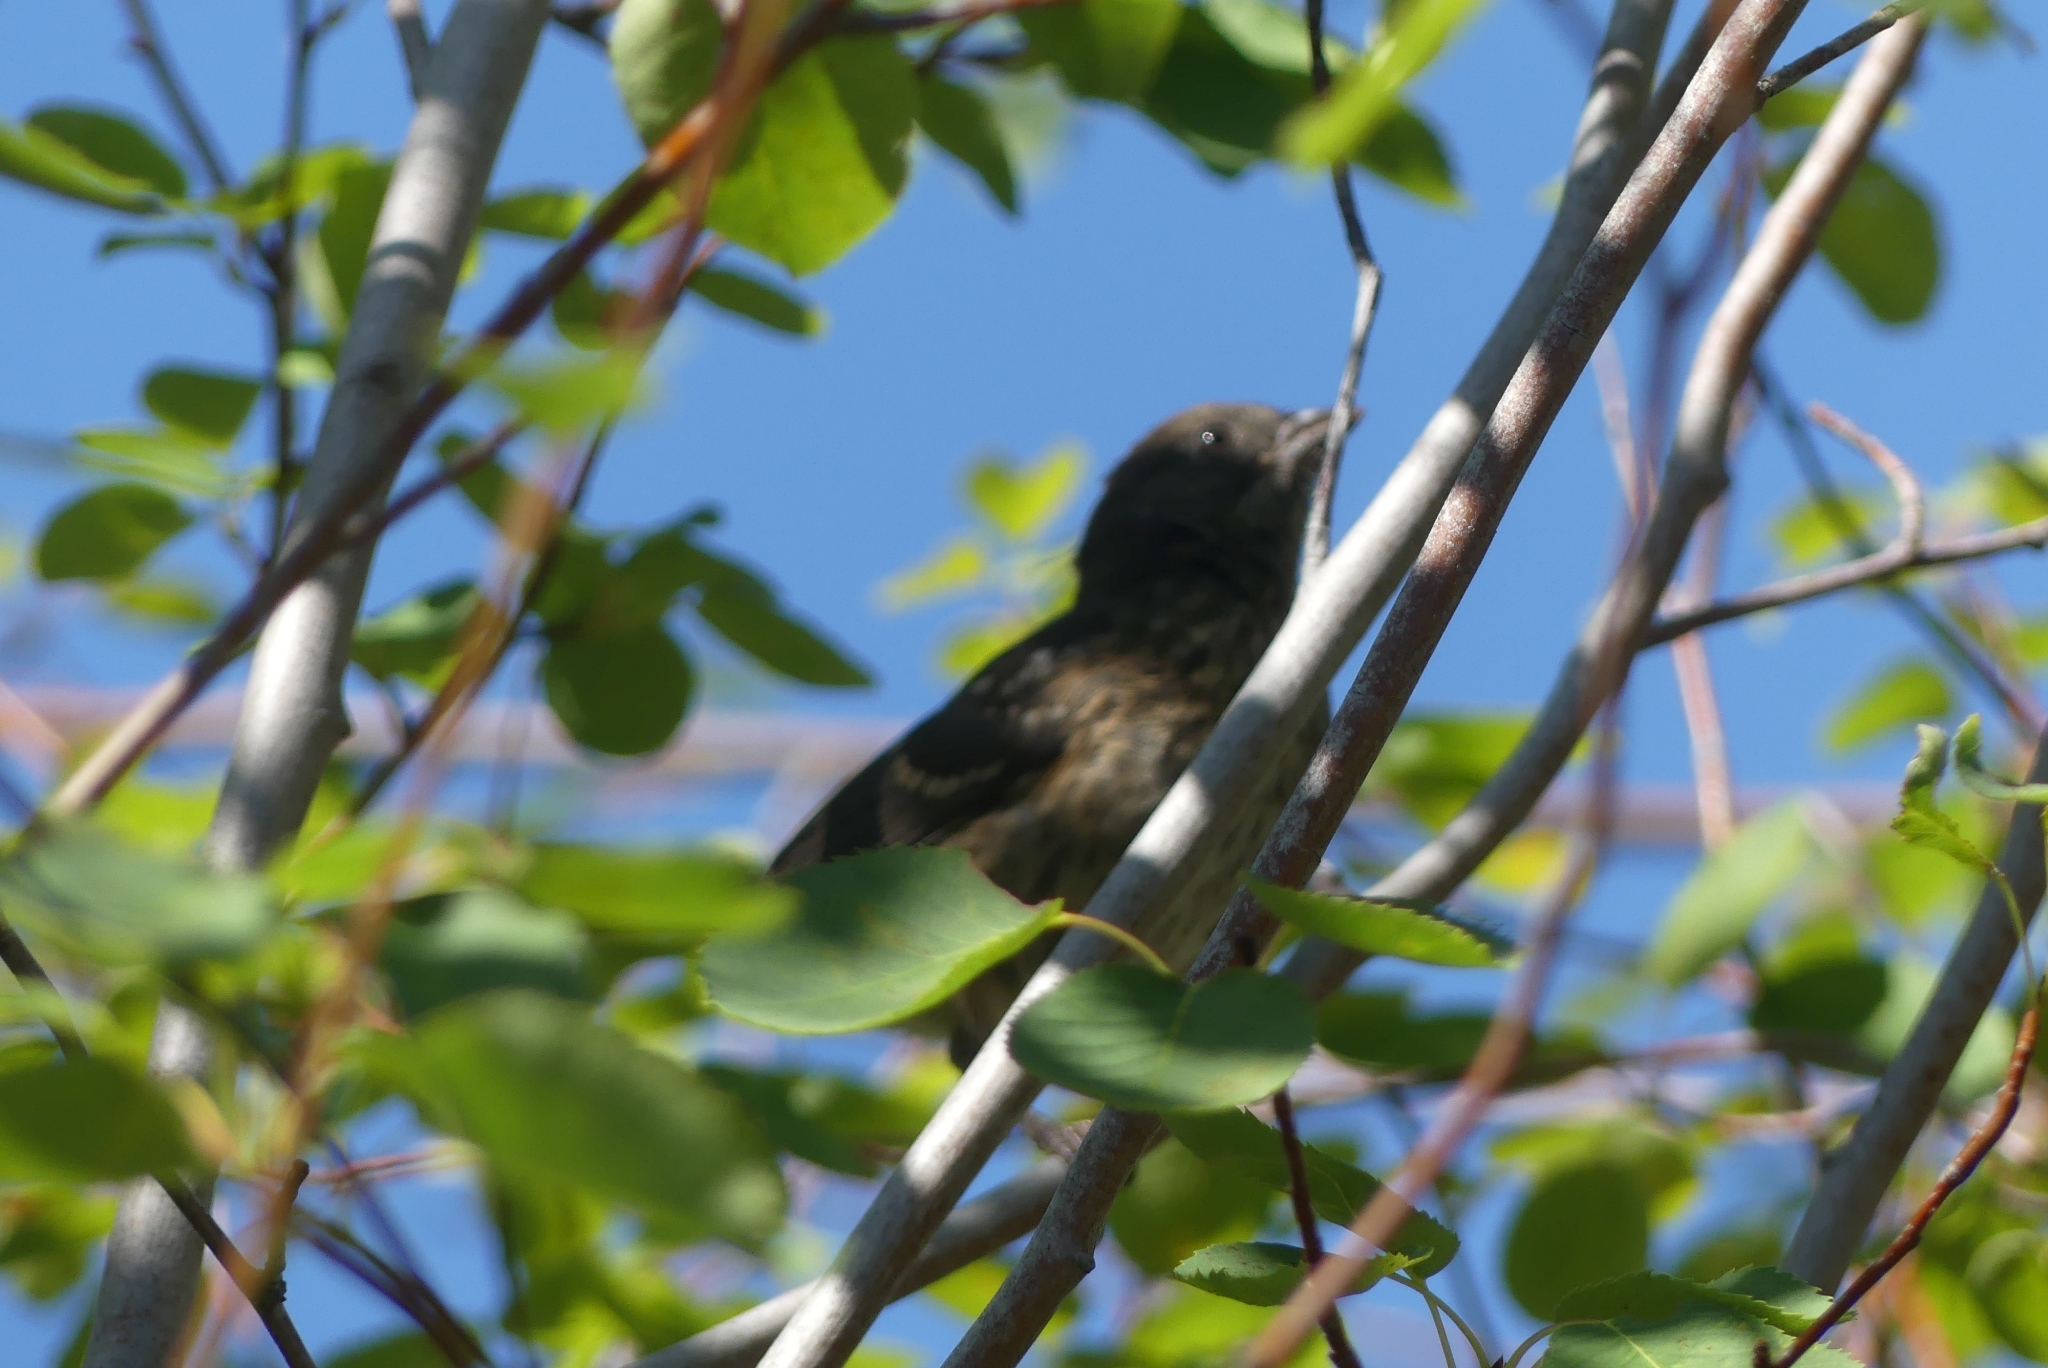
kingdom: Animalia
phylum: Chordata
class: Aves
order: Passeriformes
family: Passerellidae
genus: Pipilo
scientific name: Pipilo maculatus
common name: Spotted towhee
